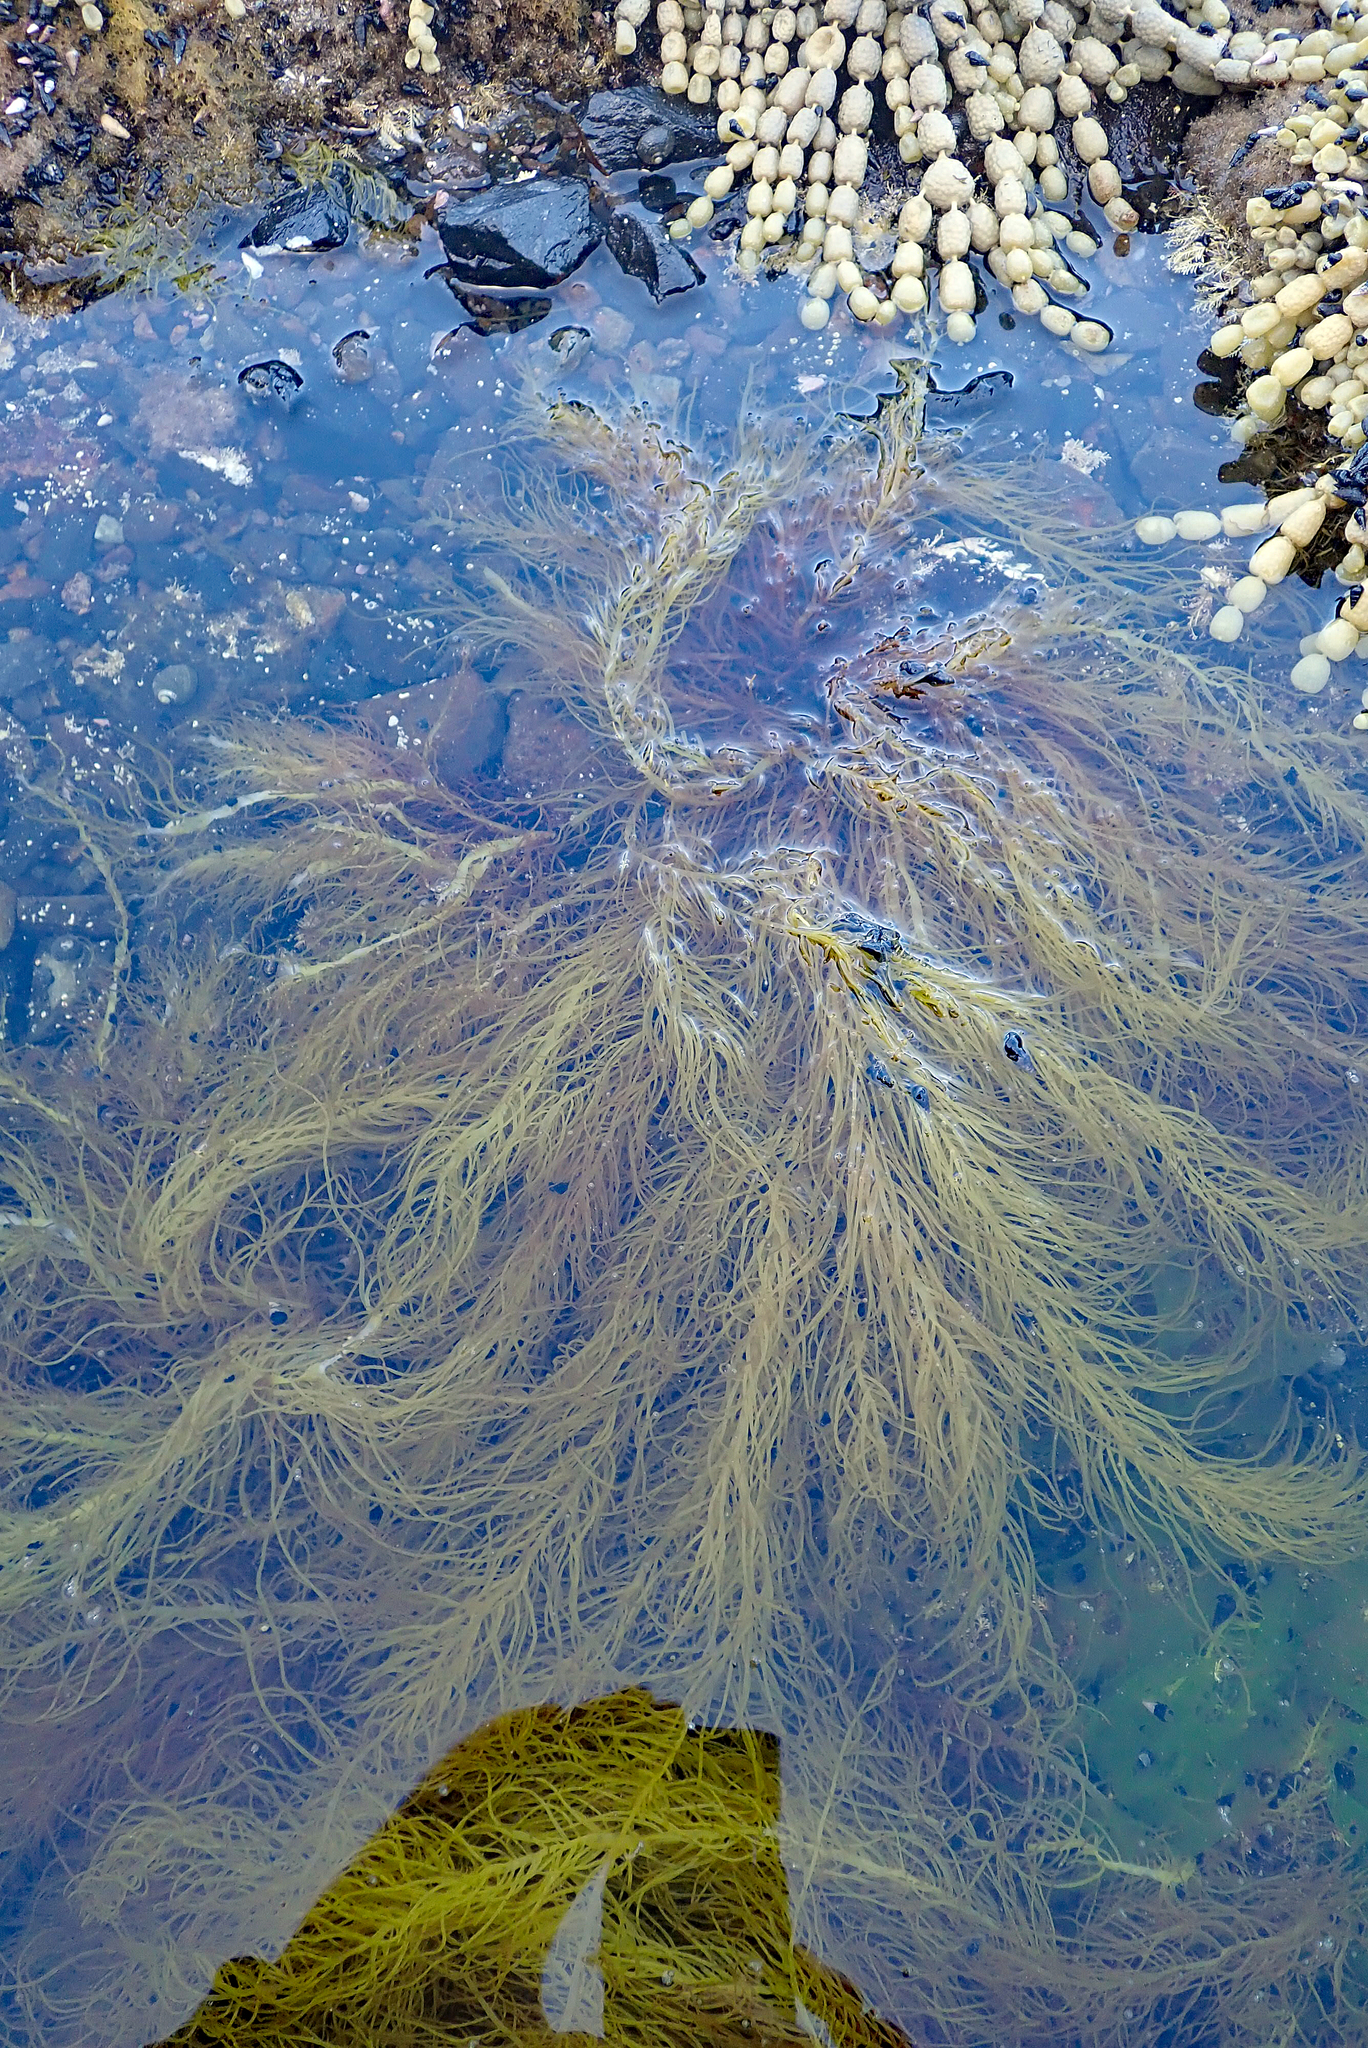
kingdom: Plantae
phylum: Rhodophyta
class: Florideophyceae
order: Halymeniales
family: Halymeniaceae
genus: Grateloupia
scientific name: Grateloupia prolifera
